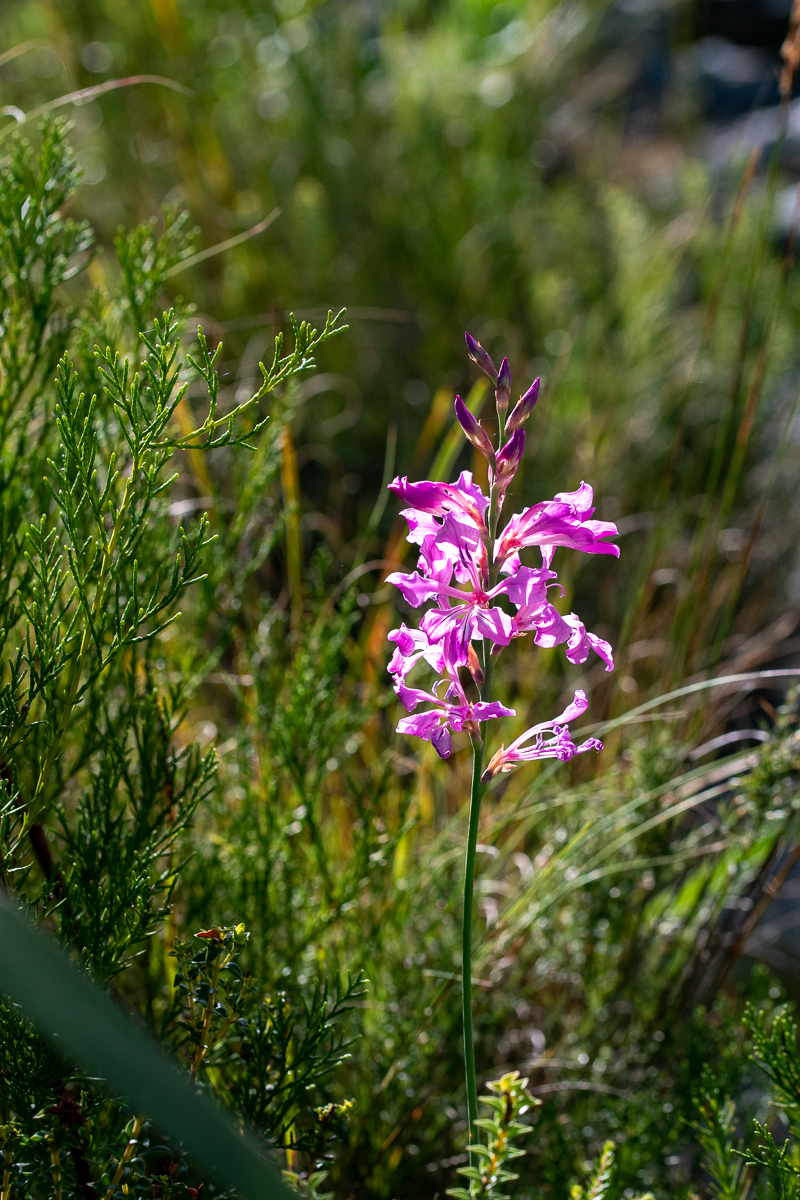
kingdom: Plantae
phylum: Tracheophyta
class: Liliopsida
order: Asparagales
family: Iridaceae
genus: Tritoniopsis
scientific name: Tritoniopsis lata
